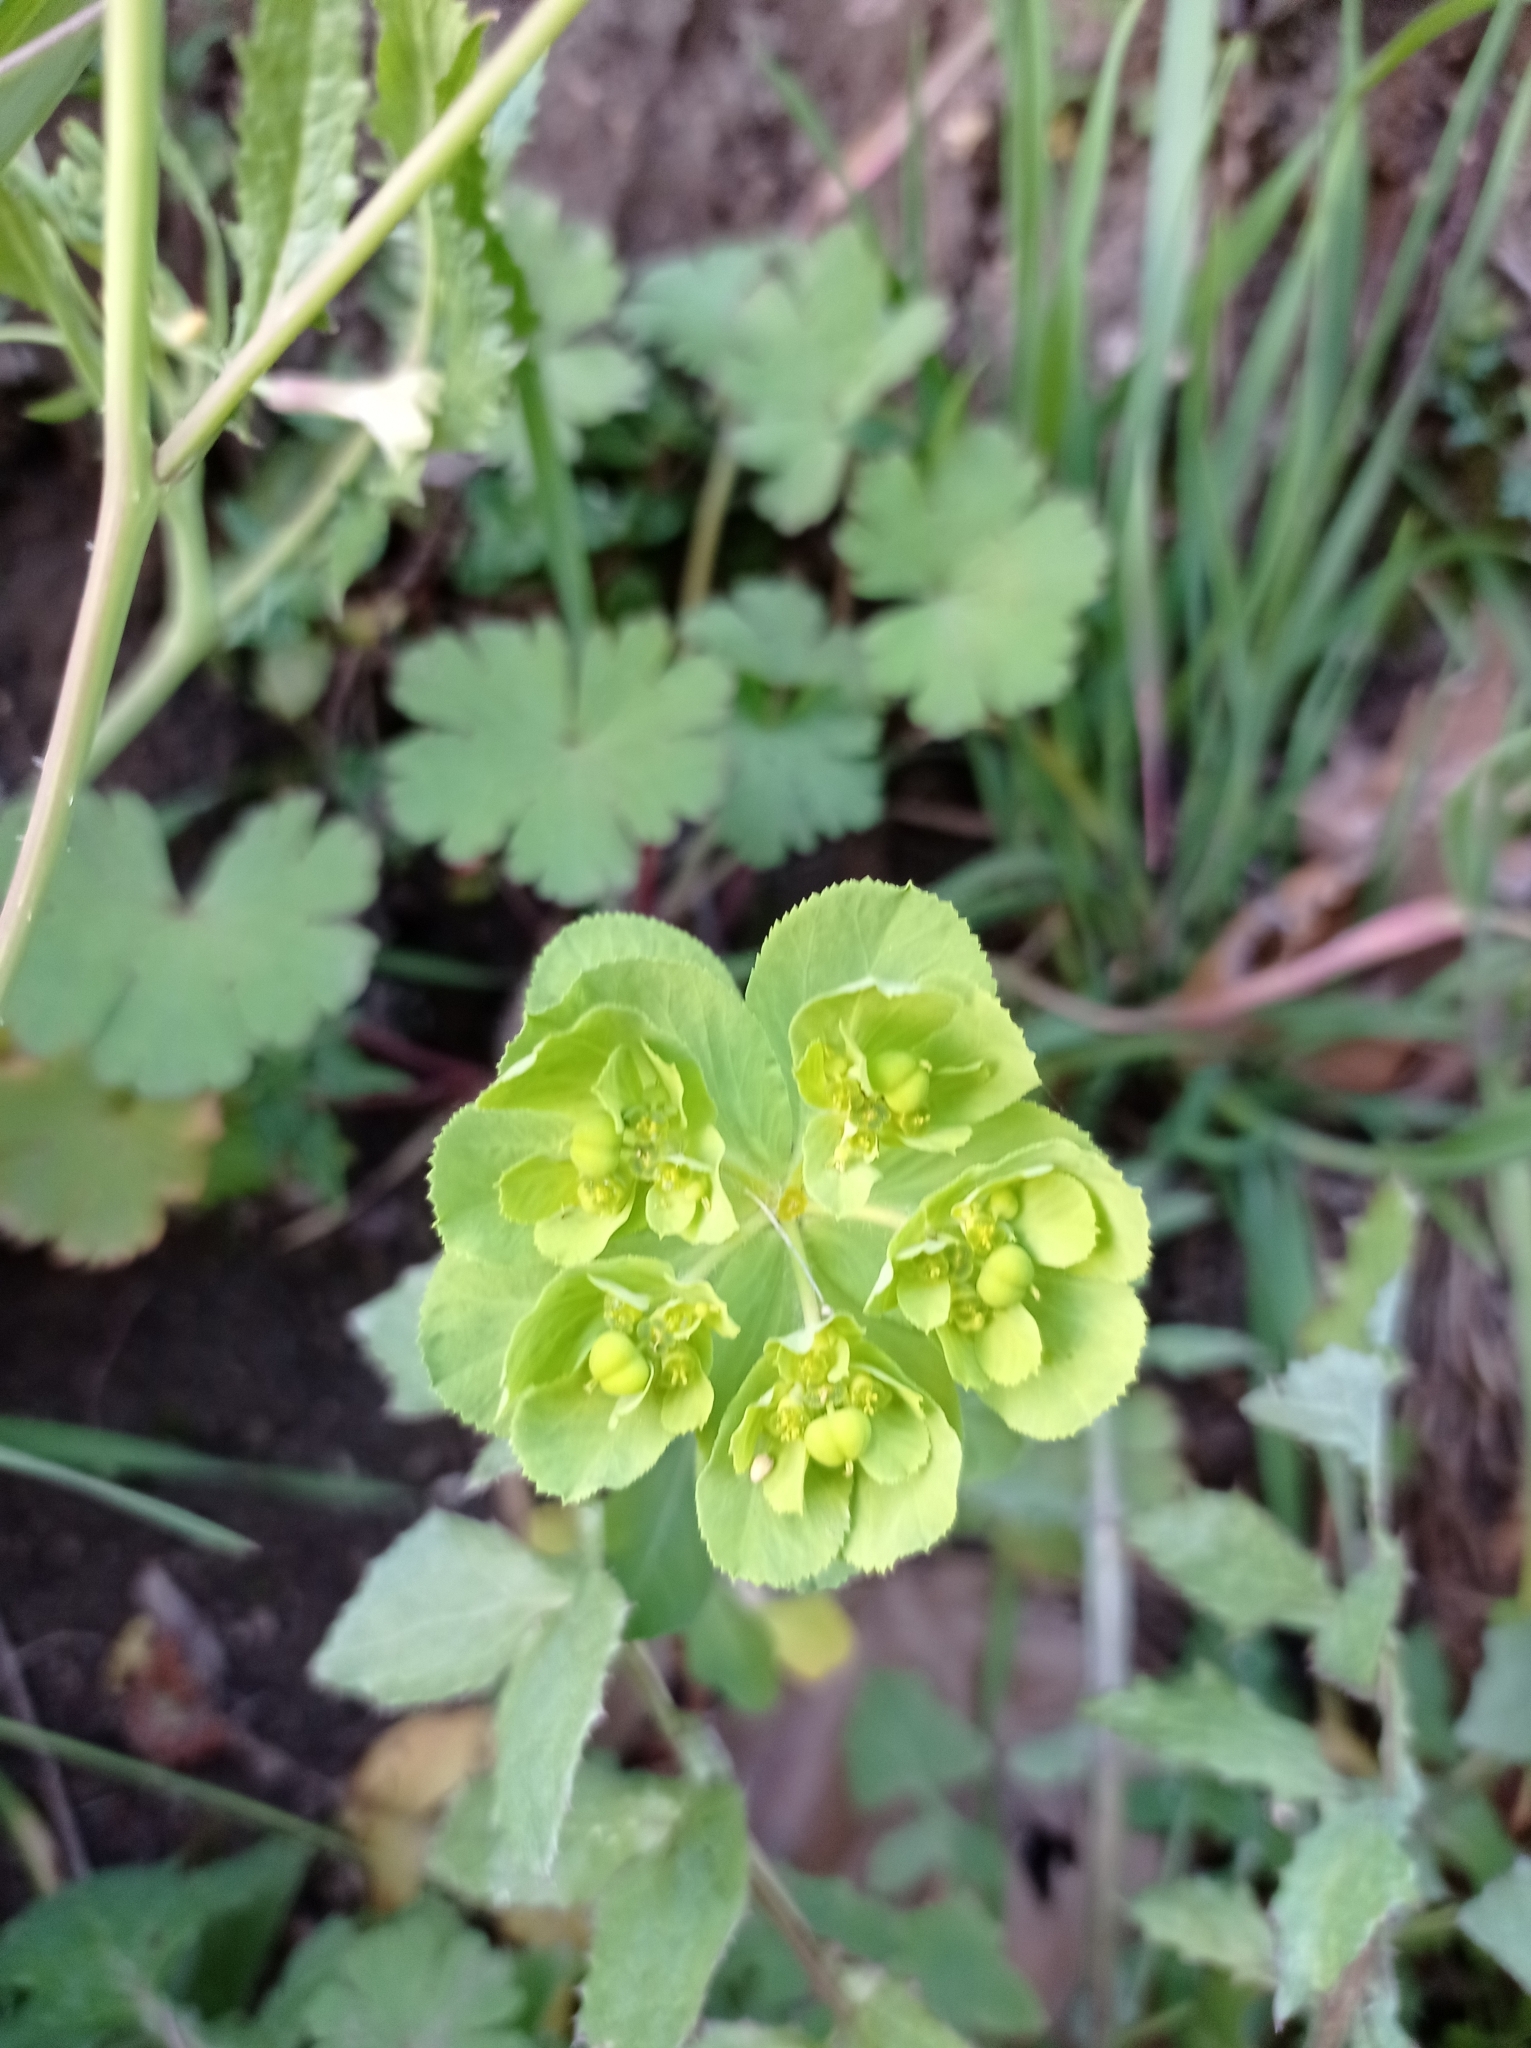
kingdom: Plantae
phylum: Tracheophyta
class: Magnoliopsida
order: Malpighiales
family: Euphorbiaceae
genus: Euphorbia
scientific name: Euphorbia helioscopia
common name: Sun spurge
